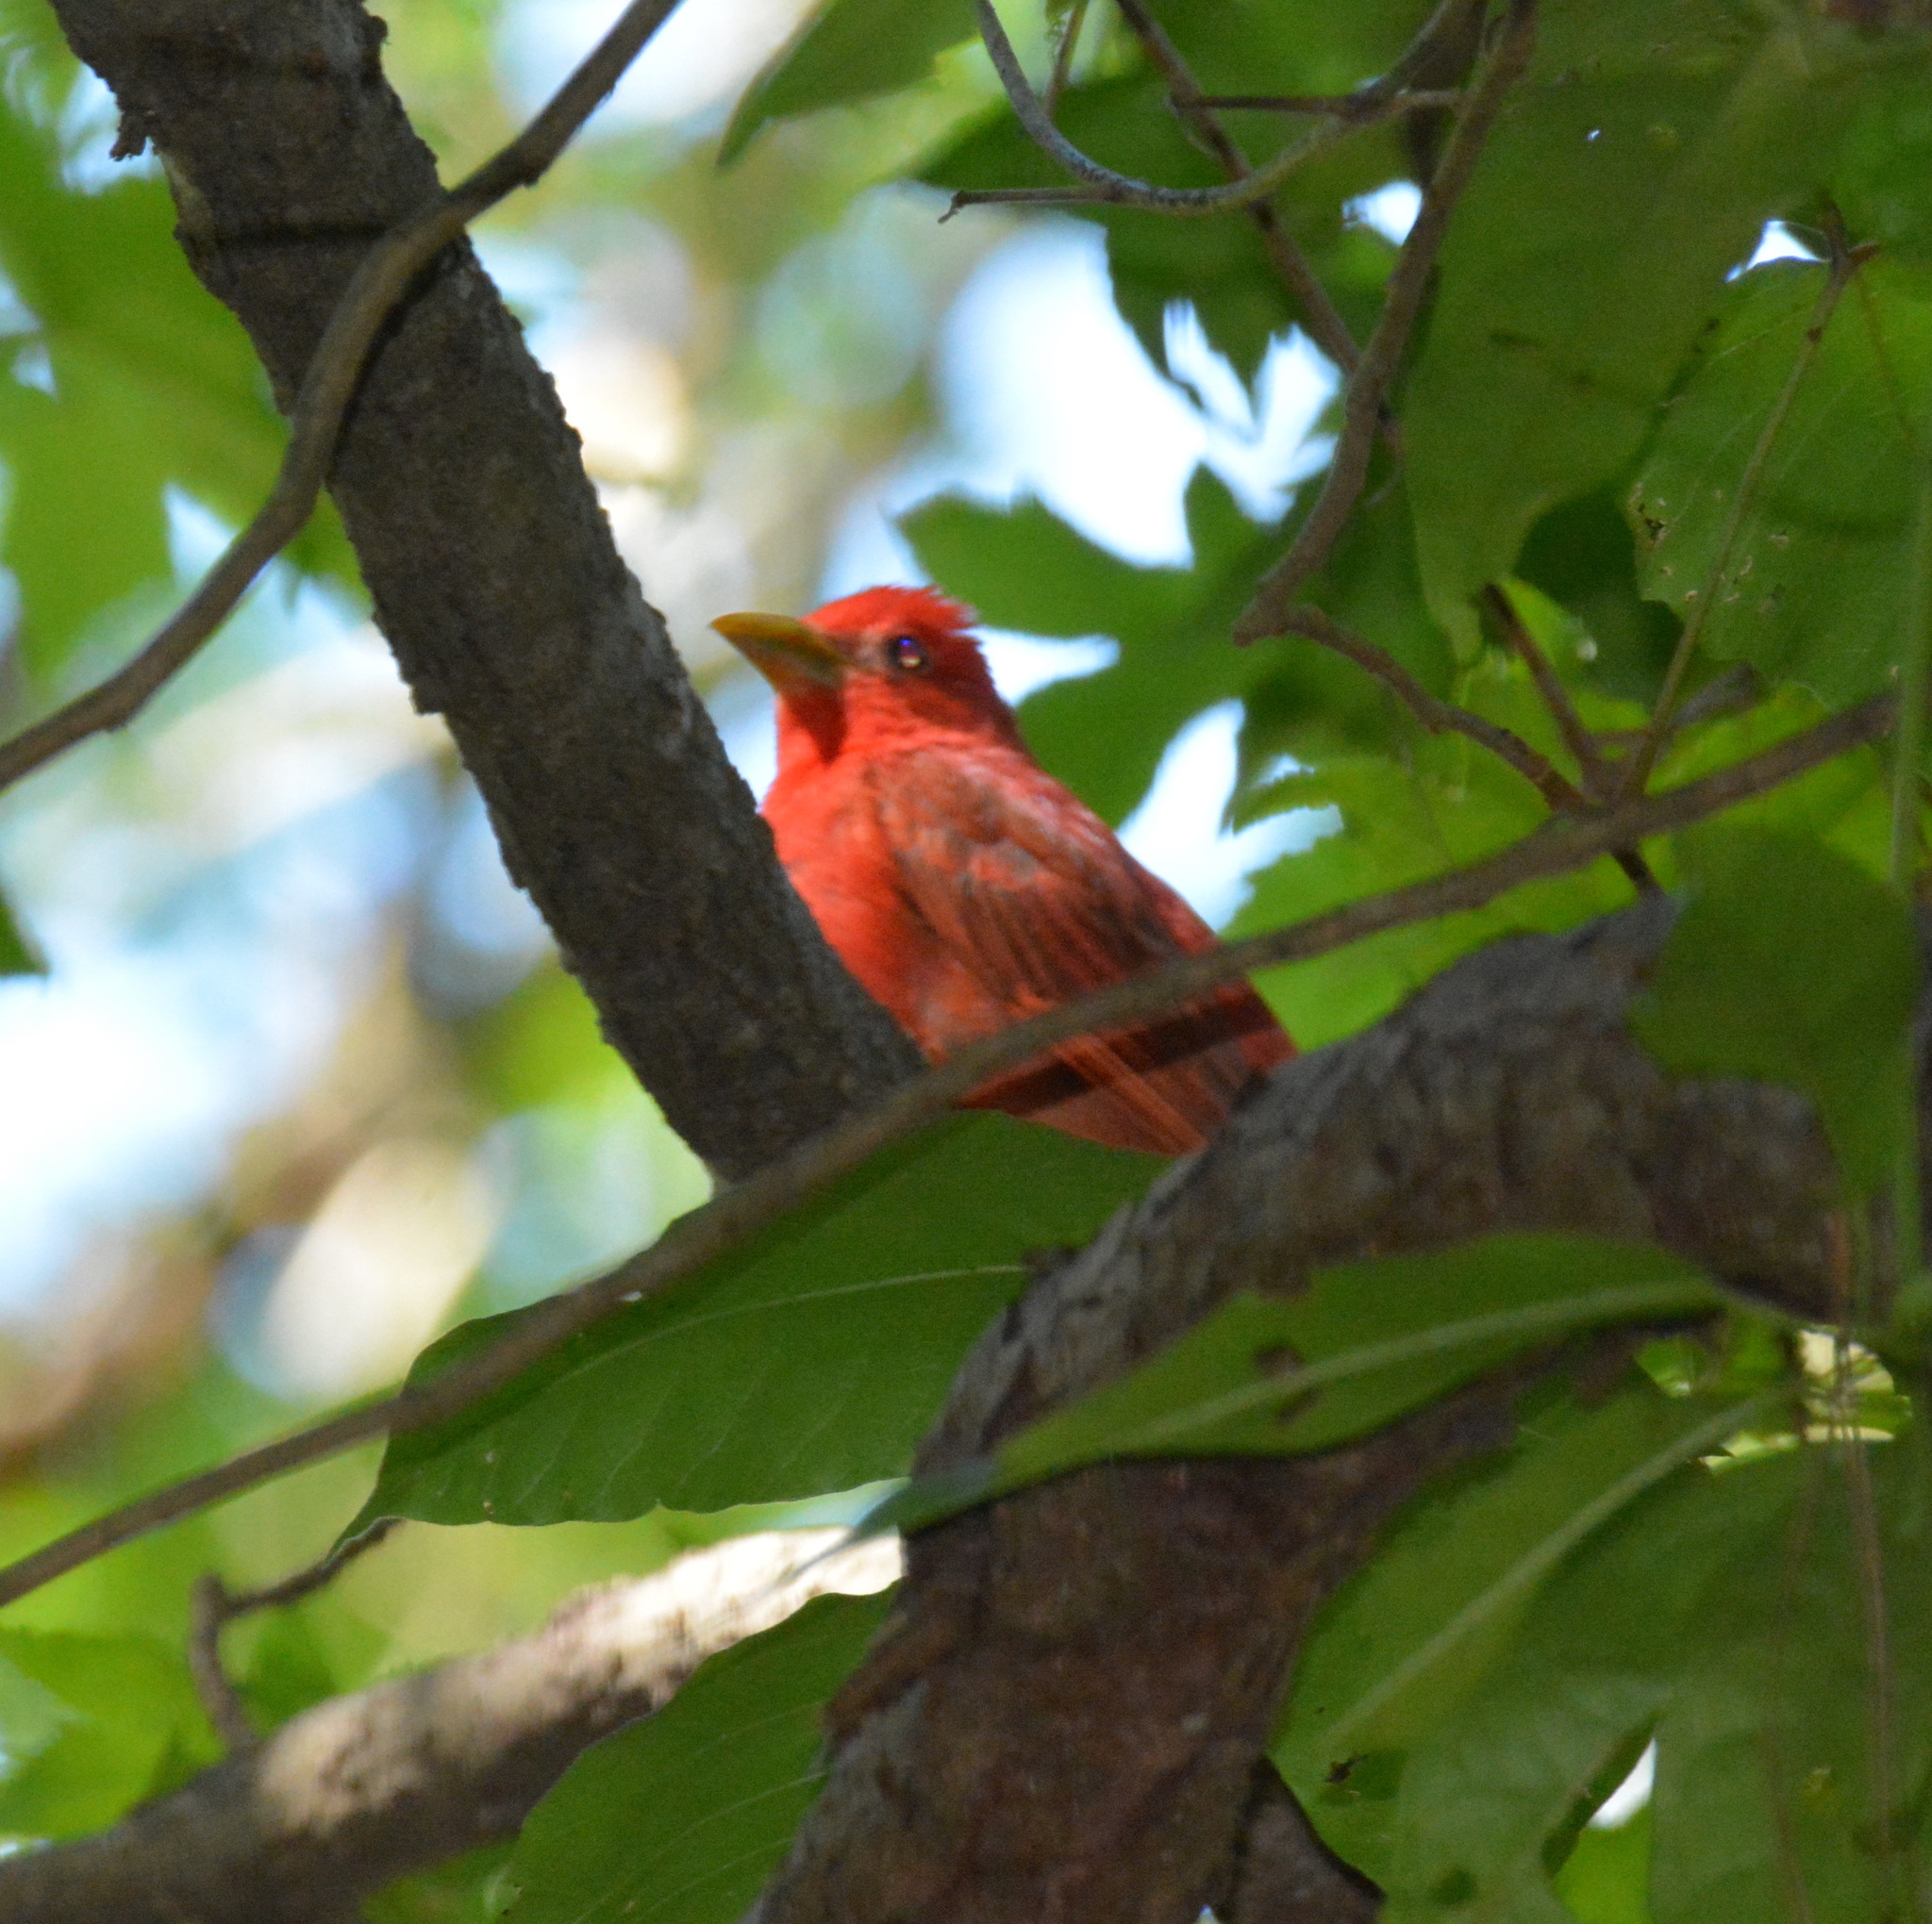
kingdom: Animalia
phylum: Chordata
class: Aves
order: Passeriformes
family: Cardinalidae
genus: Piranga
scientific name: Piranga rubra
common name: Summer tanager
